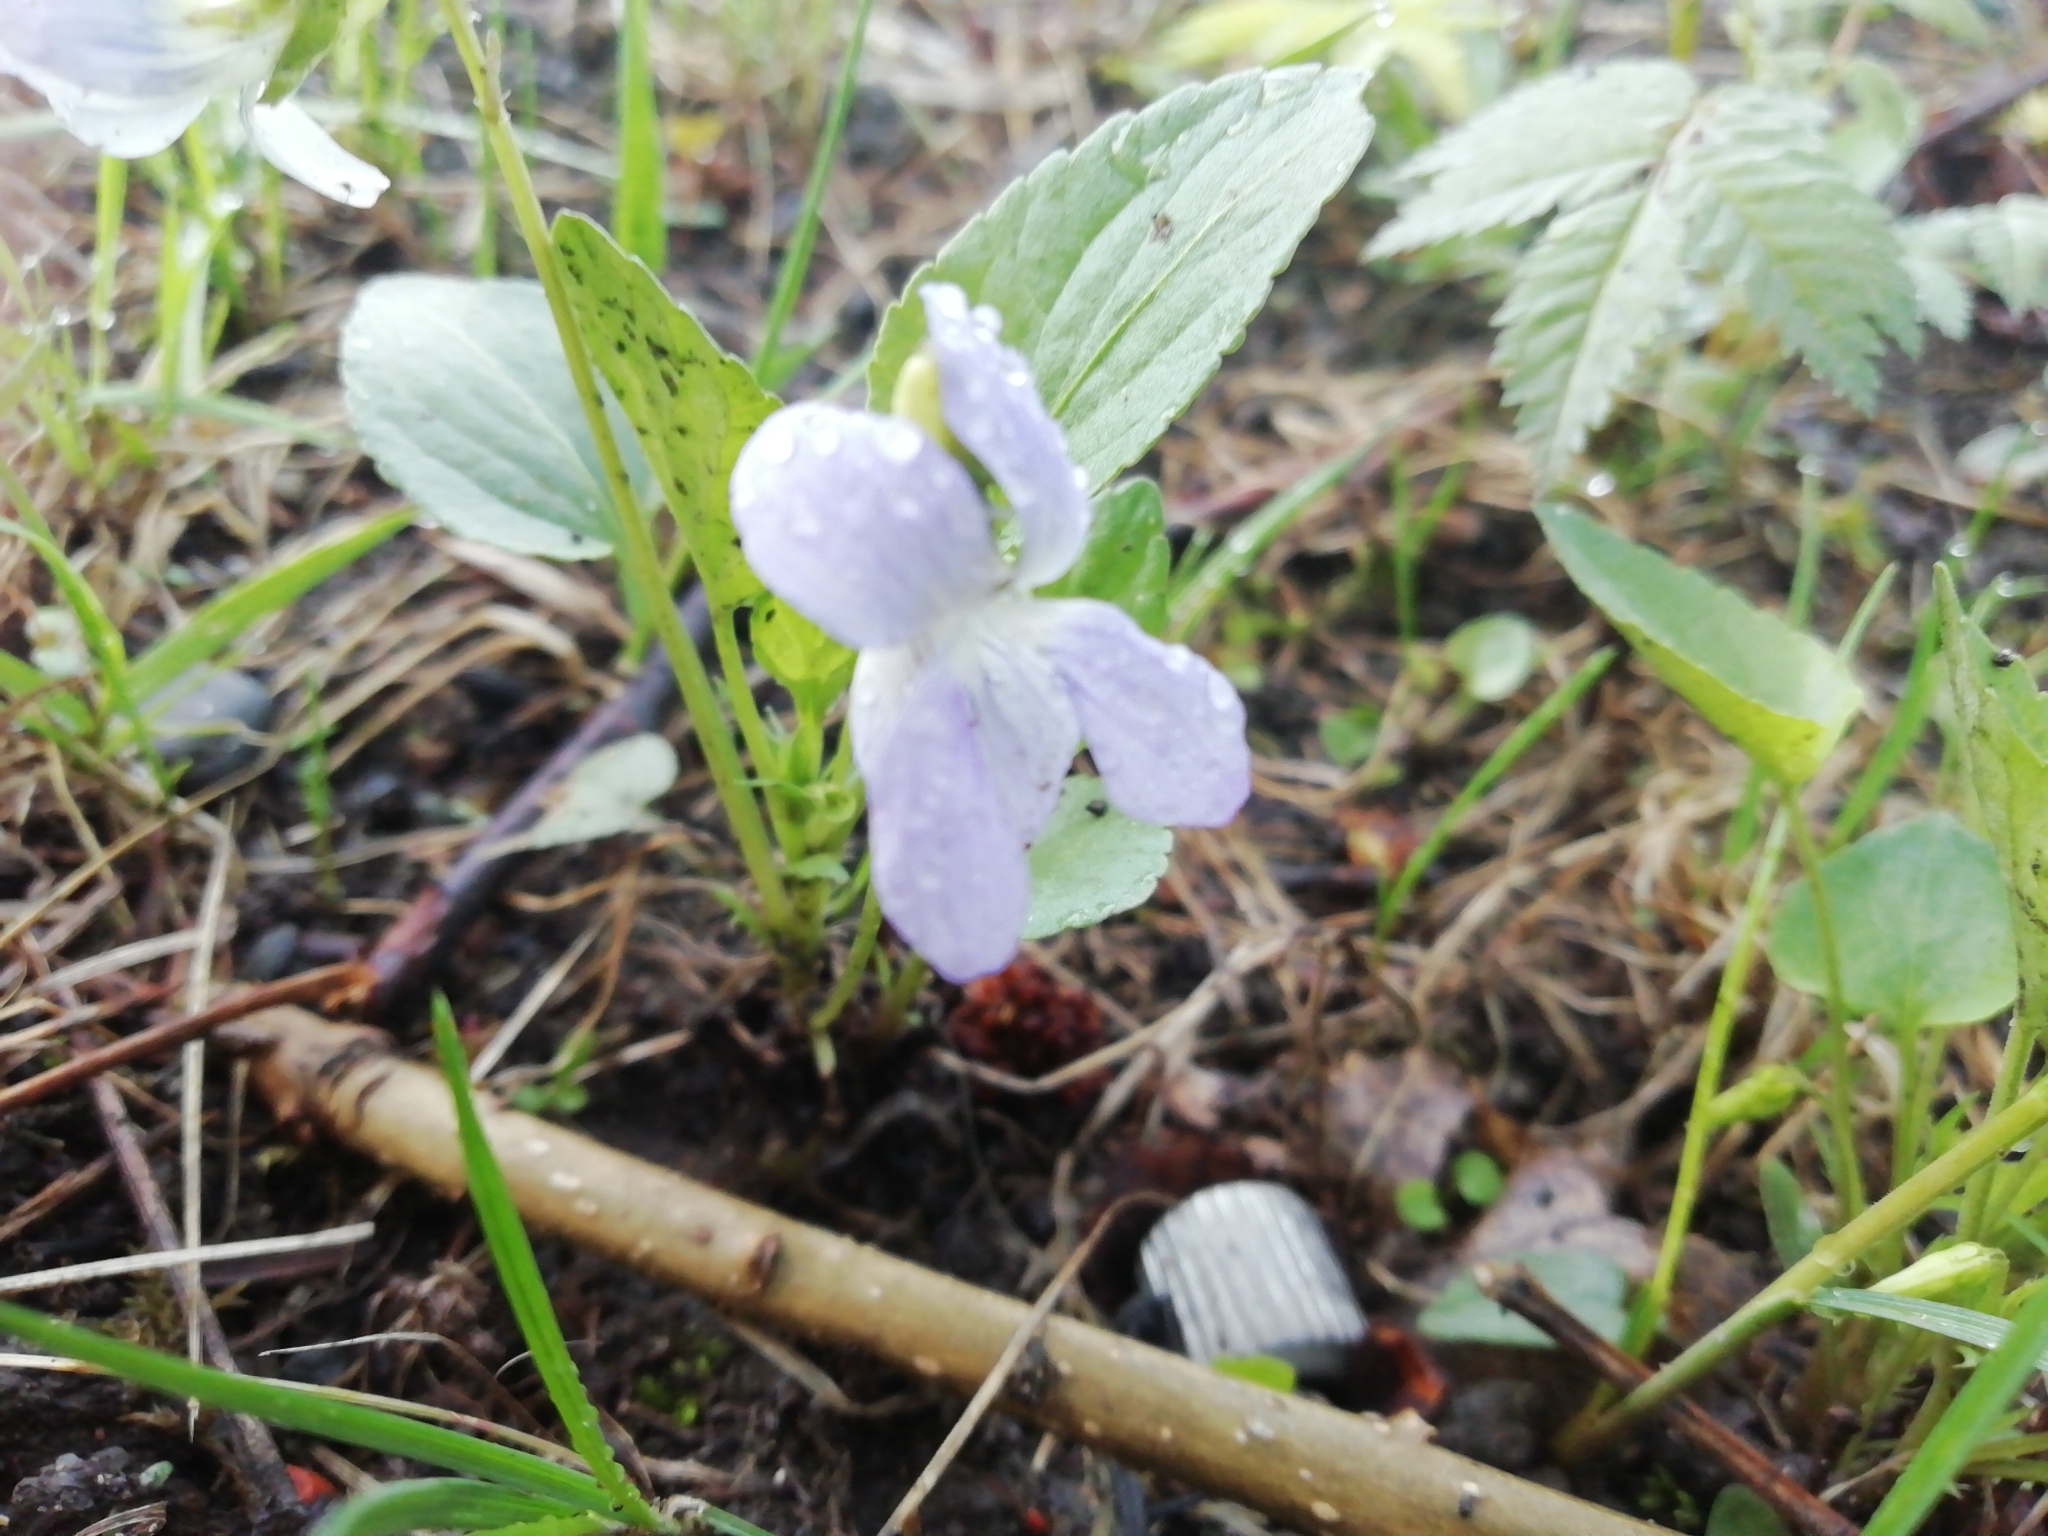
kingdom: Plantae
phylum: Tracheophyta
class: Magnoliopsida
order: Malpighiales
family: Violaceae
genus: Viola
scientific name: Viola
